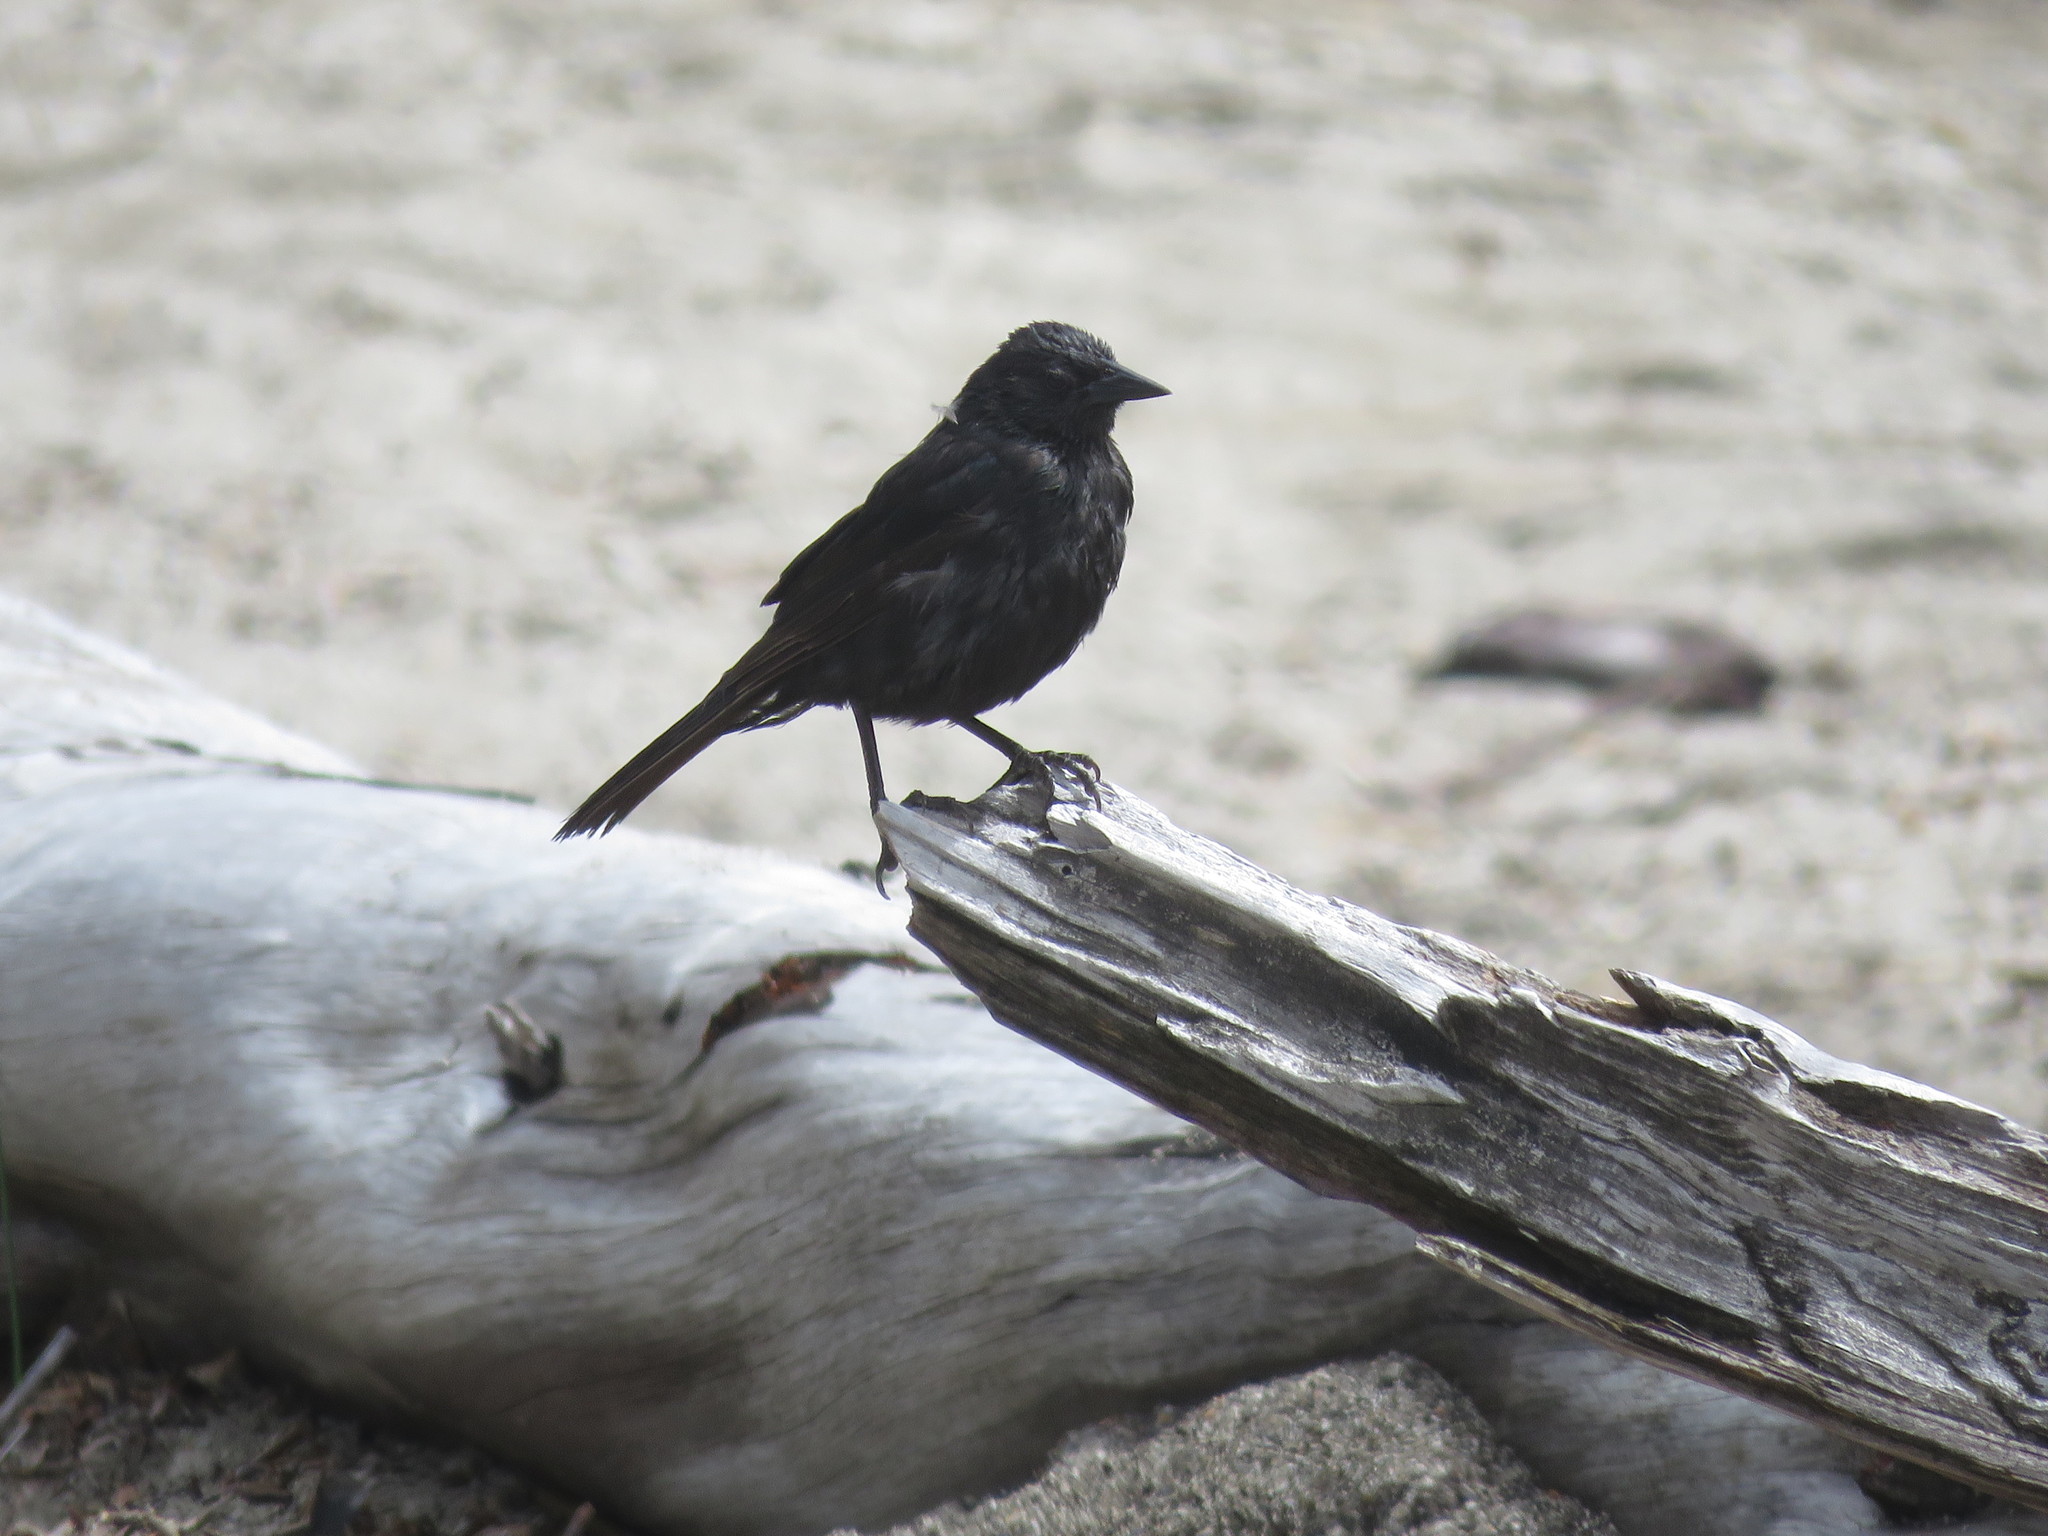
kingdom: Animalia
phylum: Chordata
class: Aves
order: Passeriformes
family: Icteridae
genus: Curaeus
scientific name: Curaeus curaeus
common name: Austral blackbird
